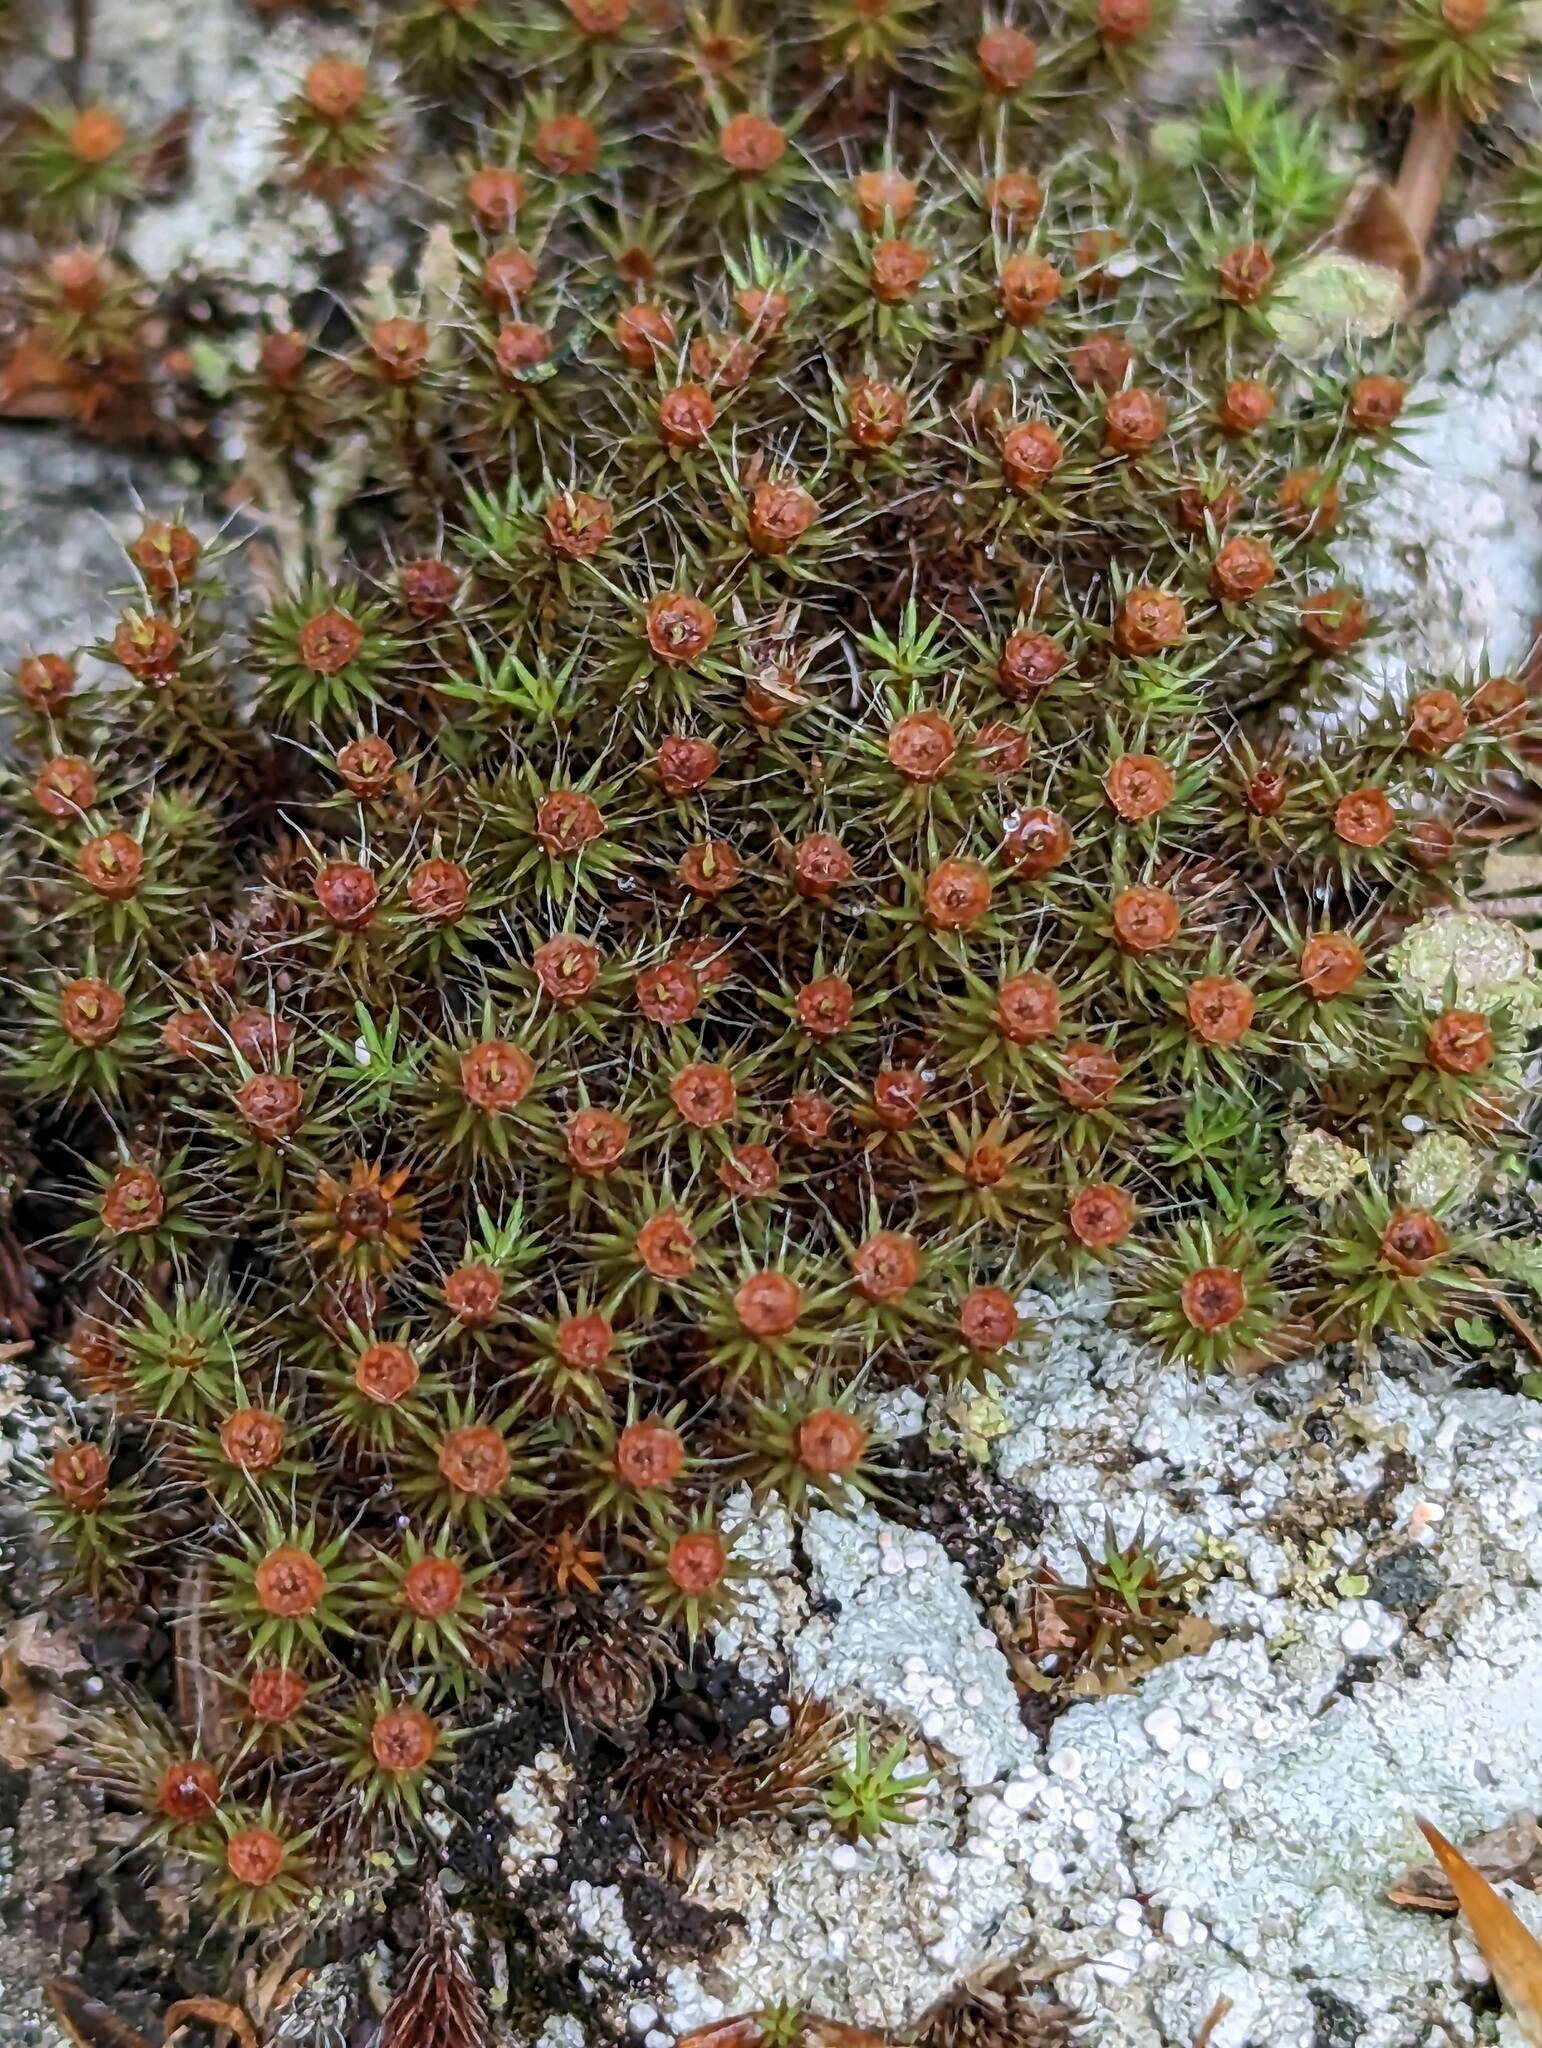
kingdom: Plantae
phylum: Bryophyta
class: Polytrichopsida
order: Polytrichales
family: Polytrichaceae
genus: Polytrichum
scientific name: Polytrichum piliferum
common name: Bristly haircap
